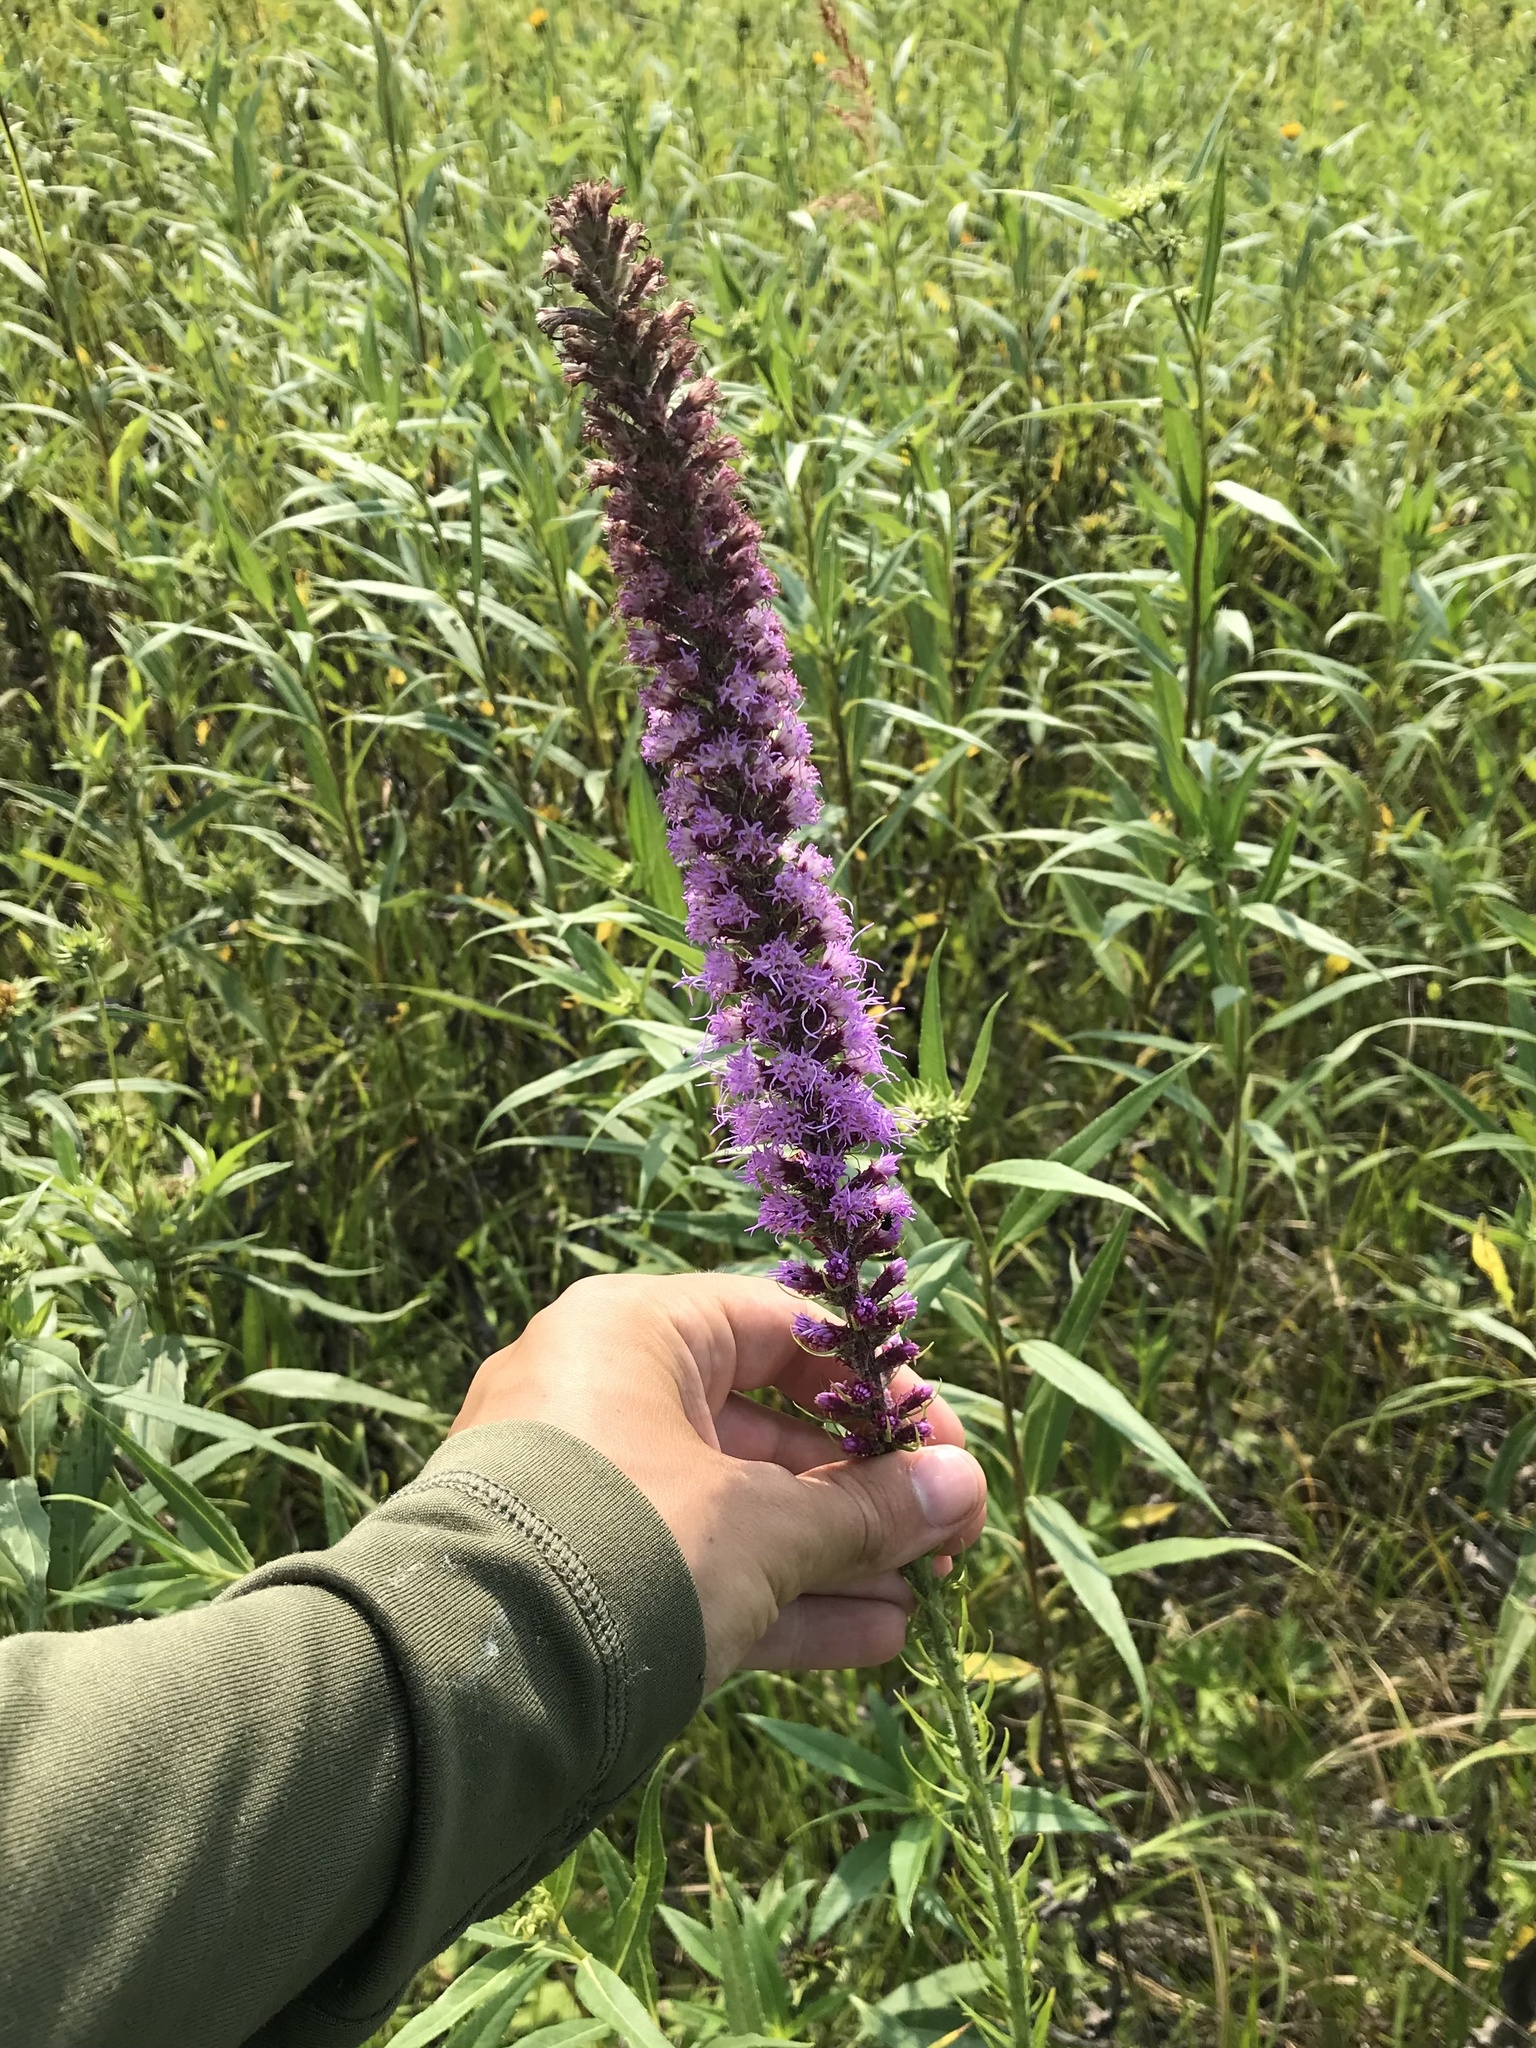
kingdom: Plantae
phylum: Tracheophyta
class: Magnoliopsida
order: Asterales
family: Asteraceae
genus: Liatris
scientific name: Liatris pycnostachya
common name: Cattail gayfeather
